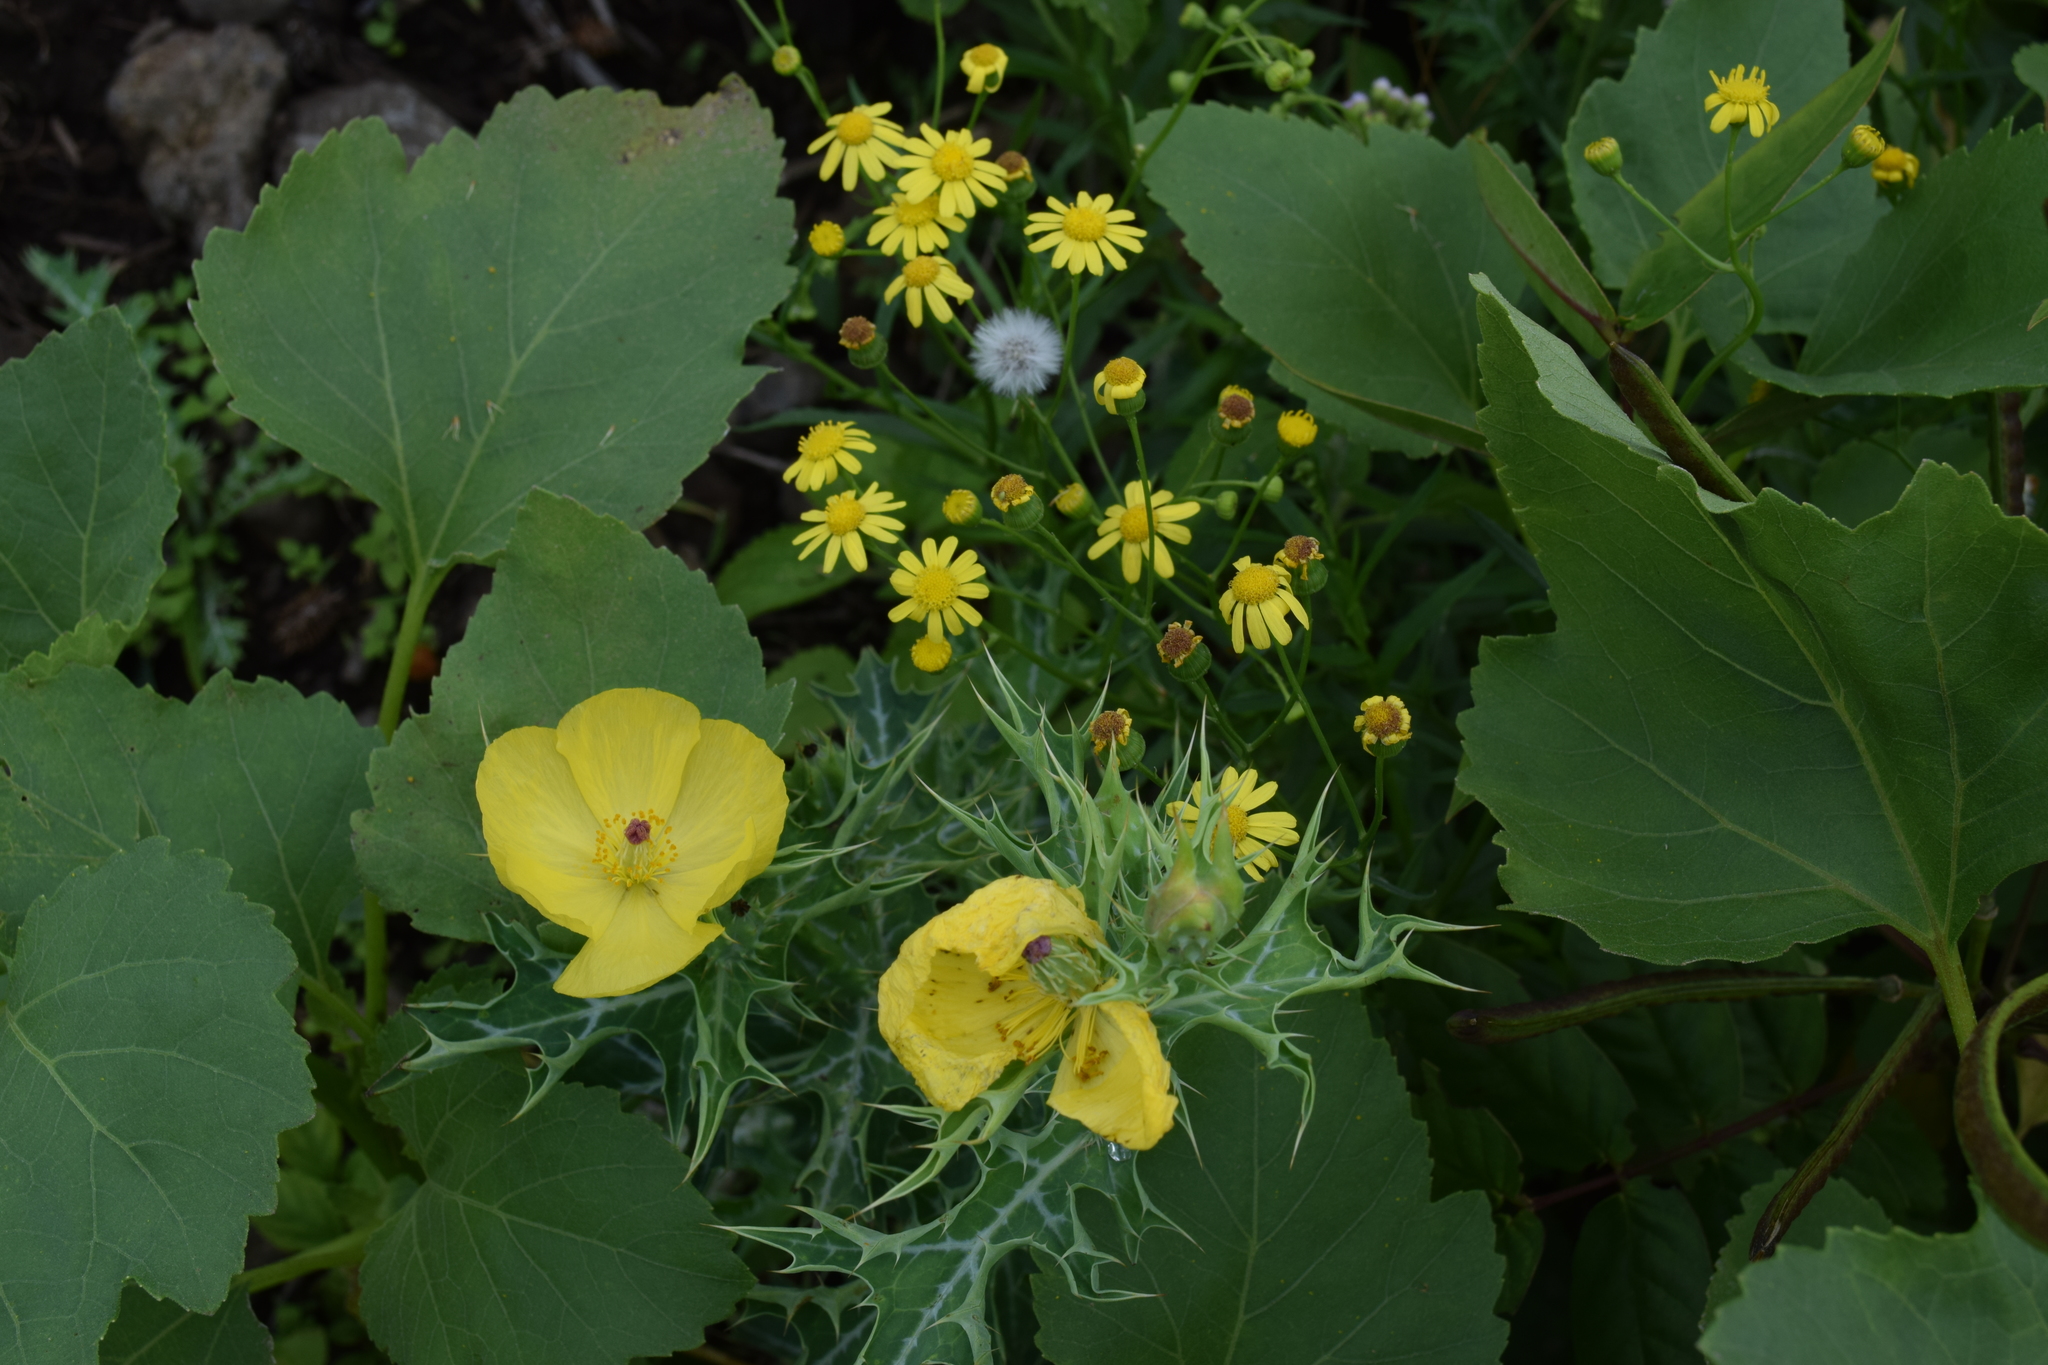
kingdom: Plantae
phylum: Tracheophyta
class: Magnoliopsida
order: Ranunculales
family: Papaveraceae
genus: Argemone
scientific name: Argemone mexicana
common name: Mexican poppy
